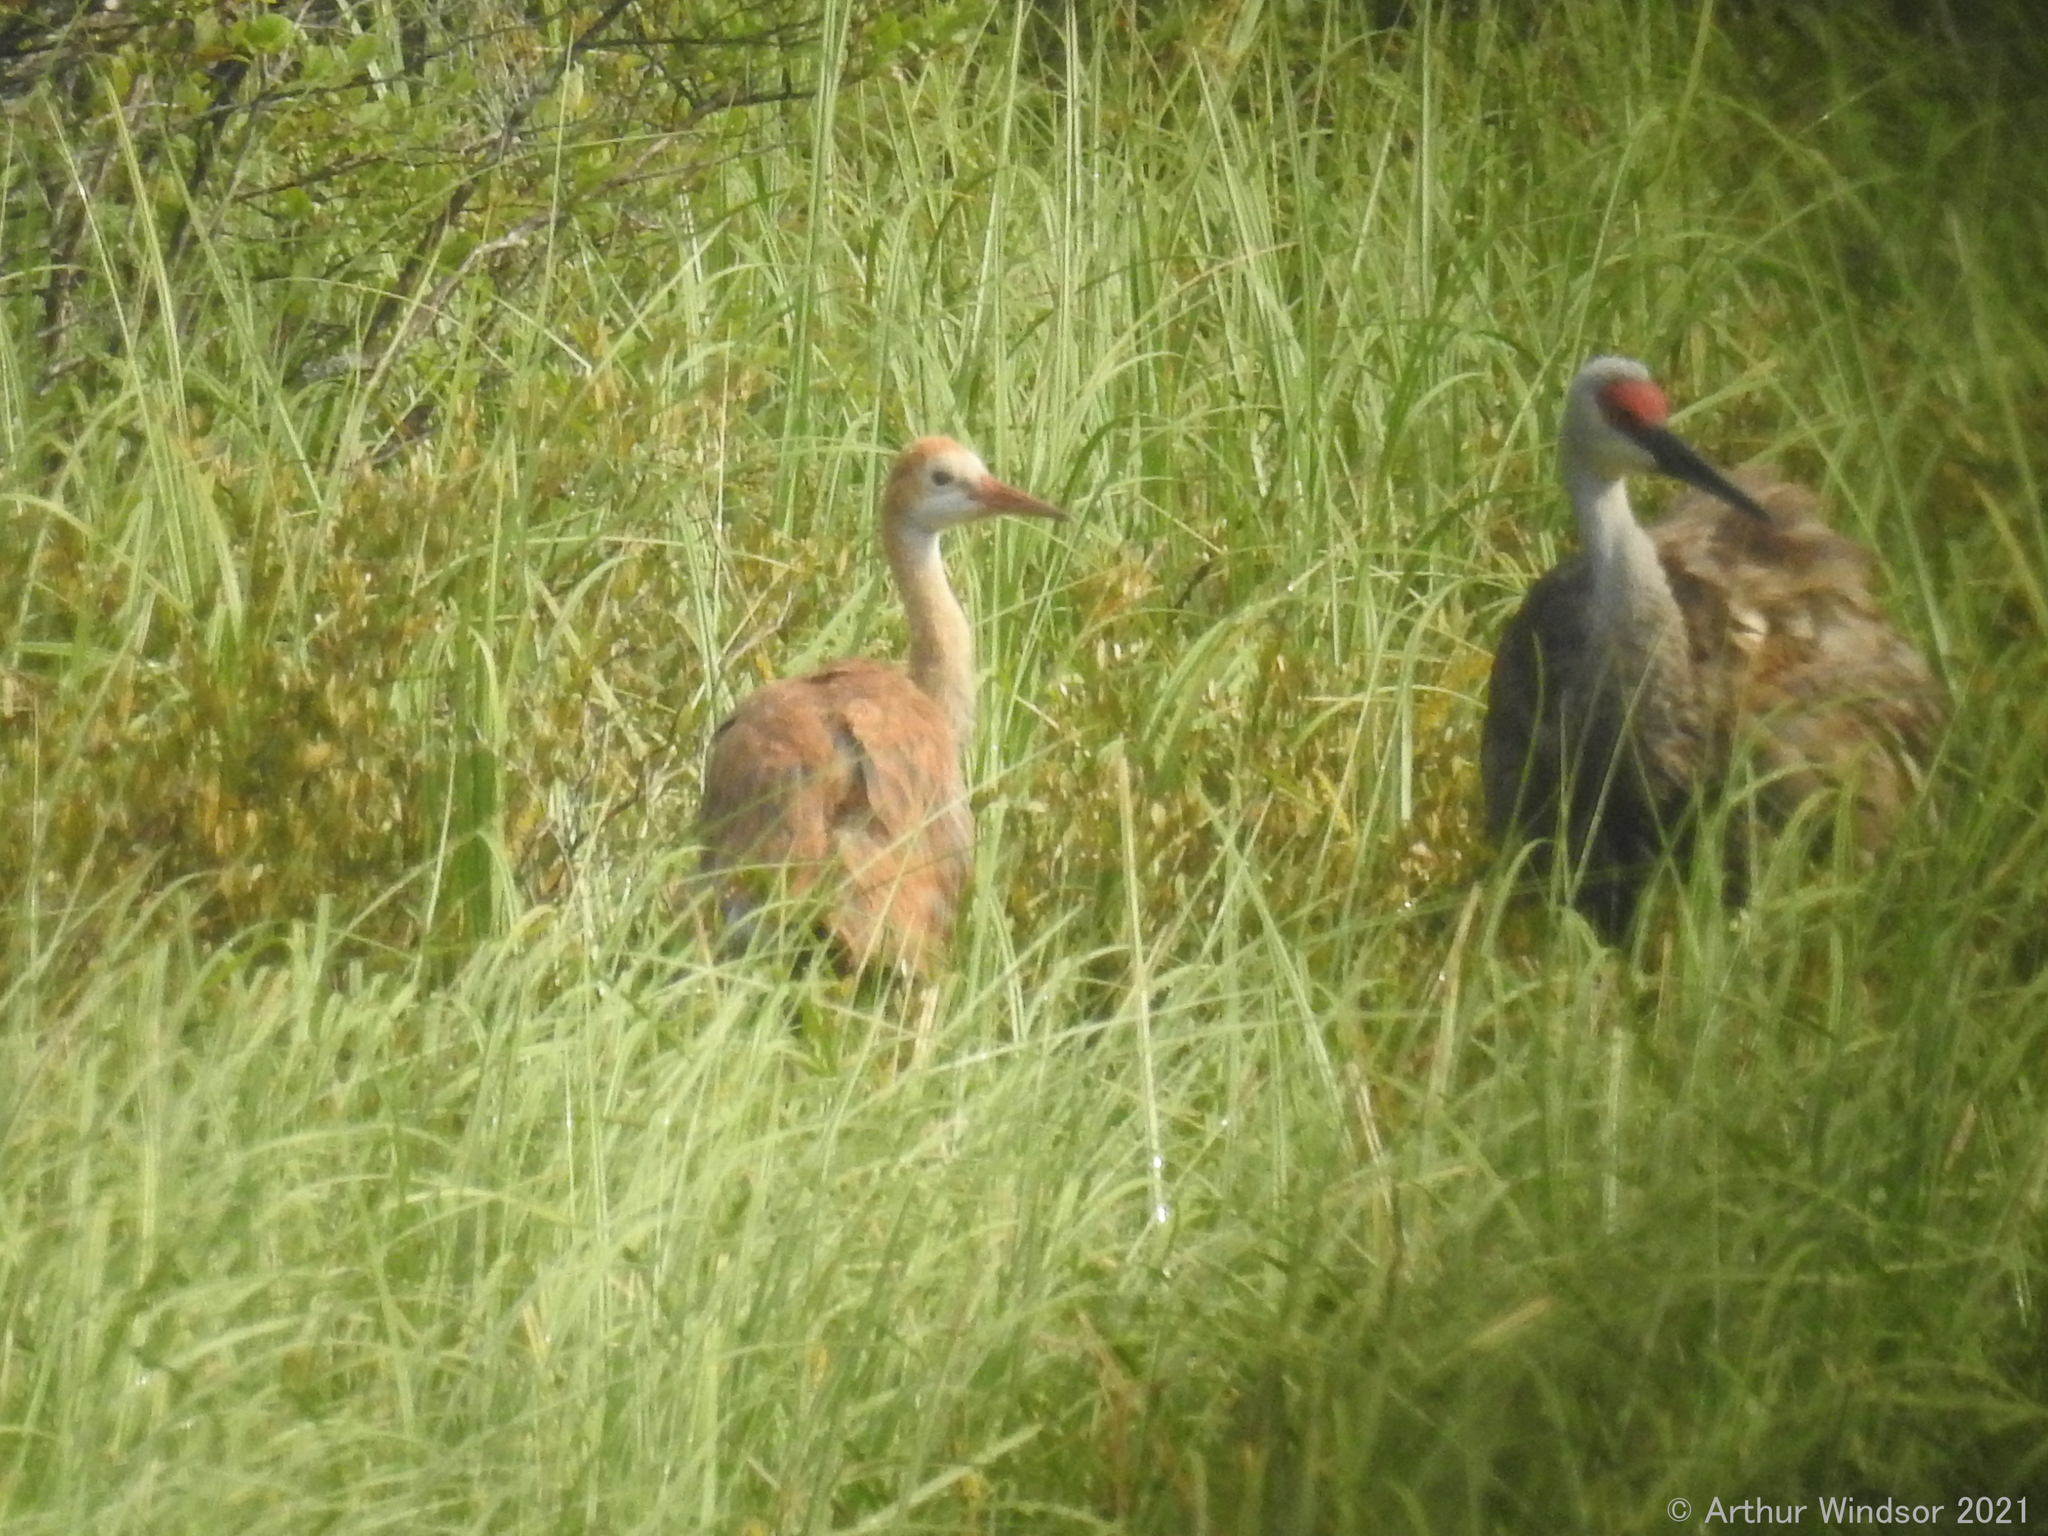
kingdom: Animalia
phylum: Chordata
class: Aves
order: Gruiformes
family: Gruidae
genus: Grus
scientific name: Grus canadensis
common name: Sandhill crane
